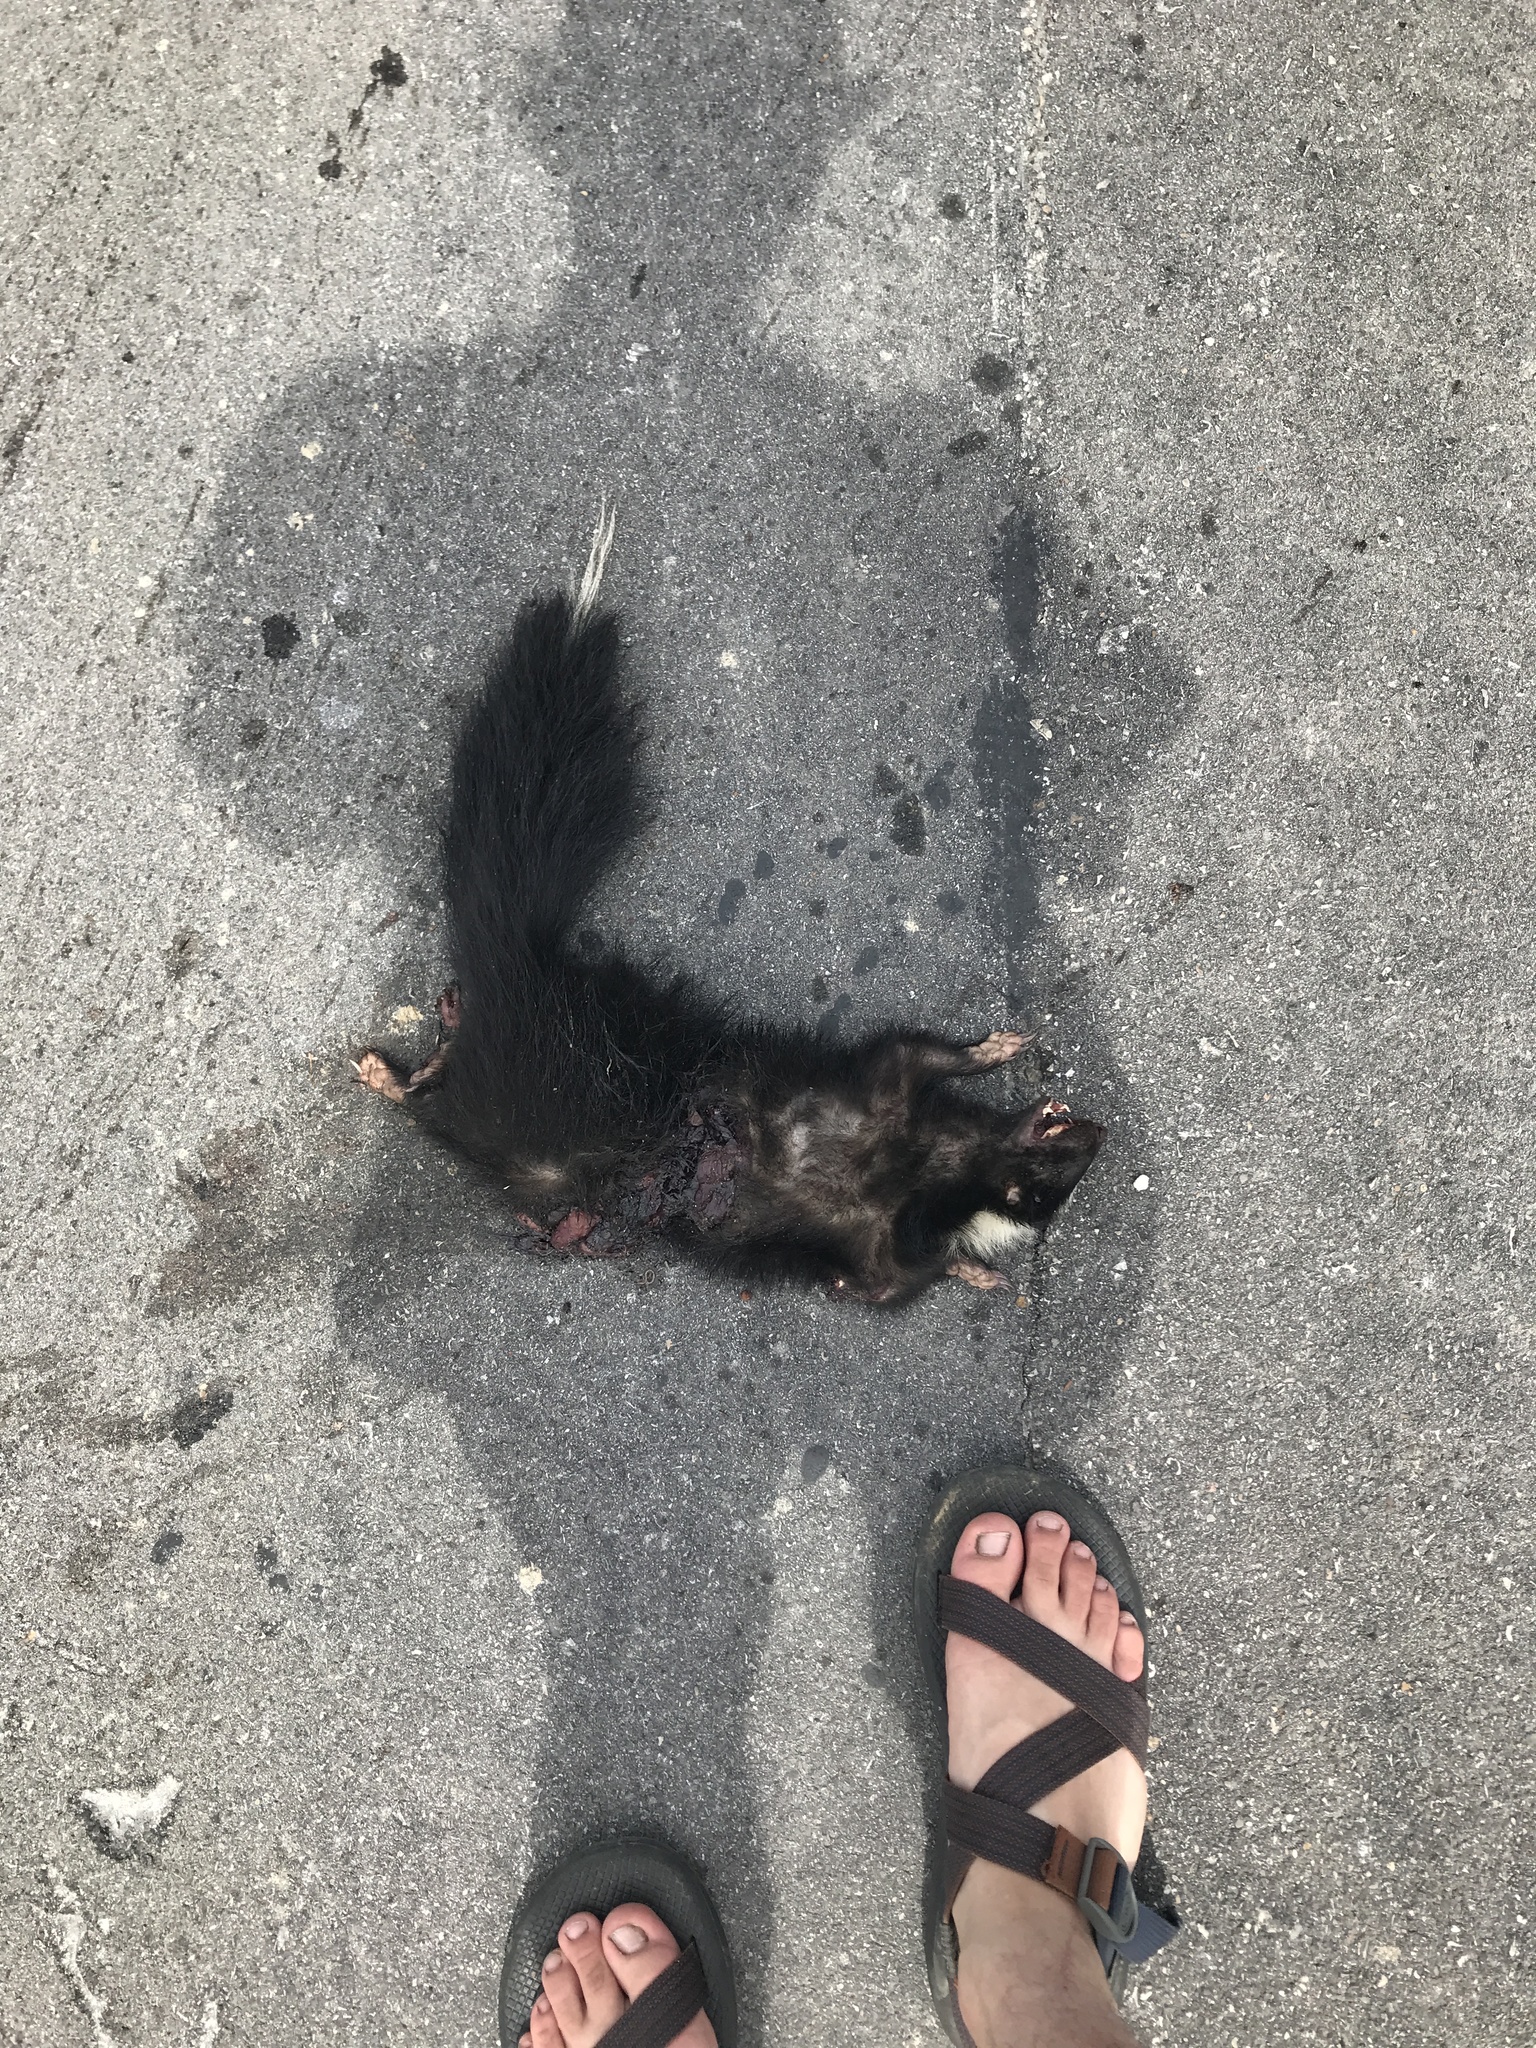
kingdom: Animalia
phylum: Chordata
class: Mammalia
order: Carnivora
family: Mephitidae
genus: Mephitis
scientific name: Mephitis mephitis
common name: Striped skunk
